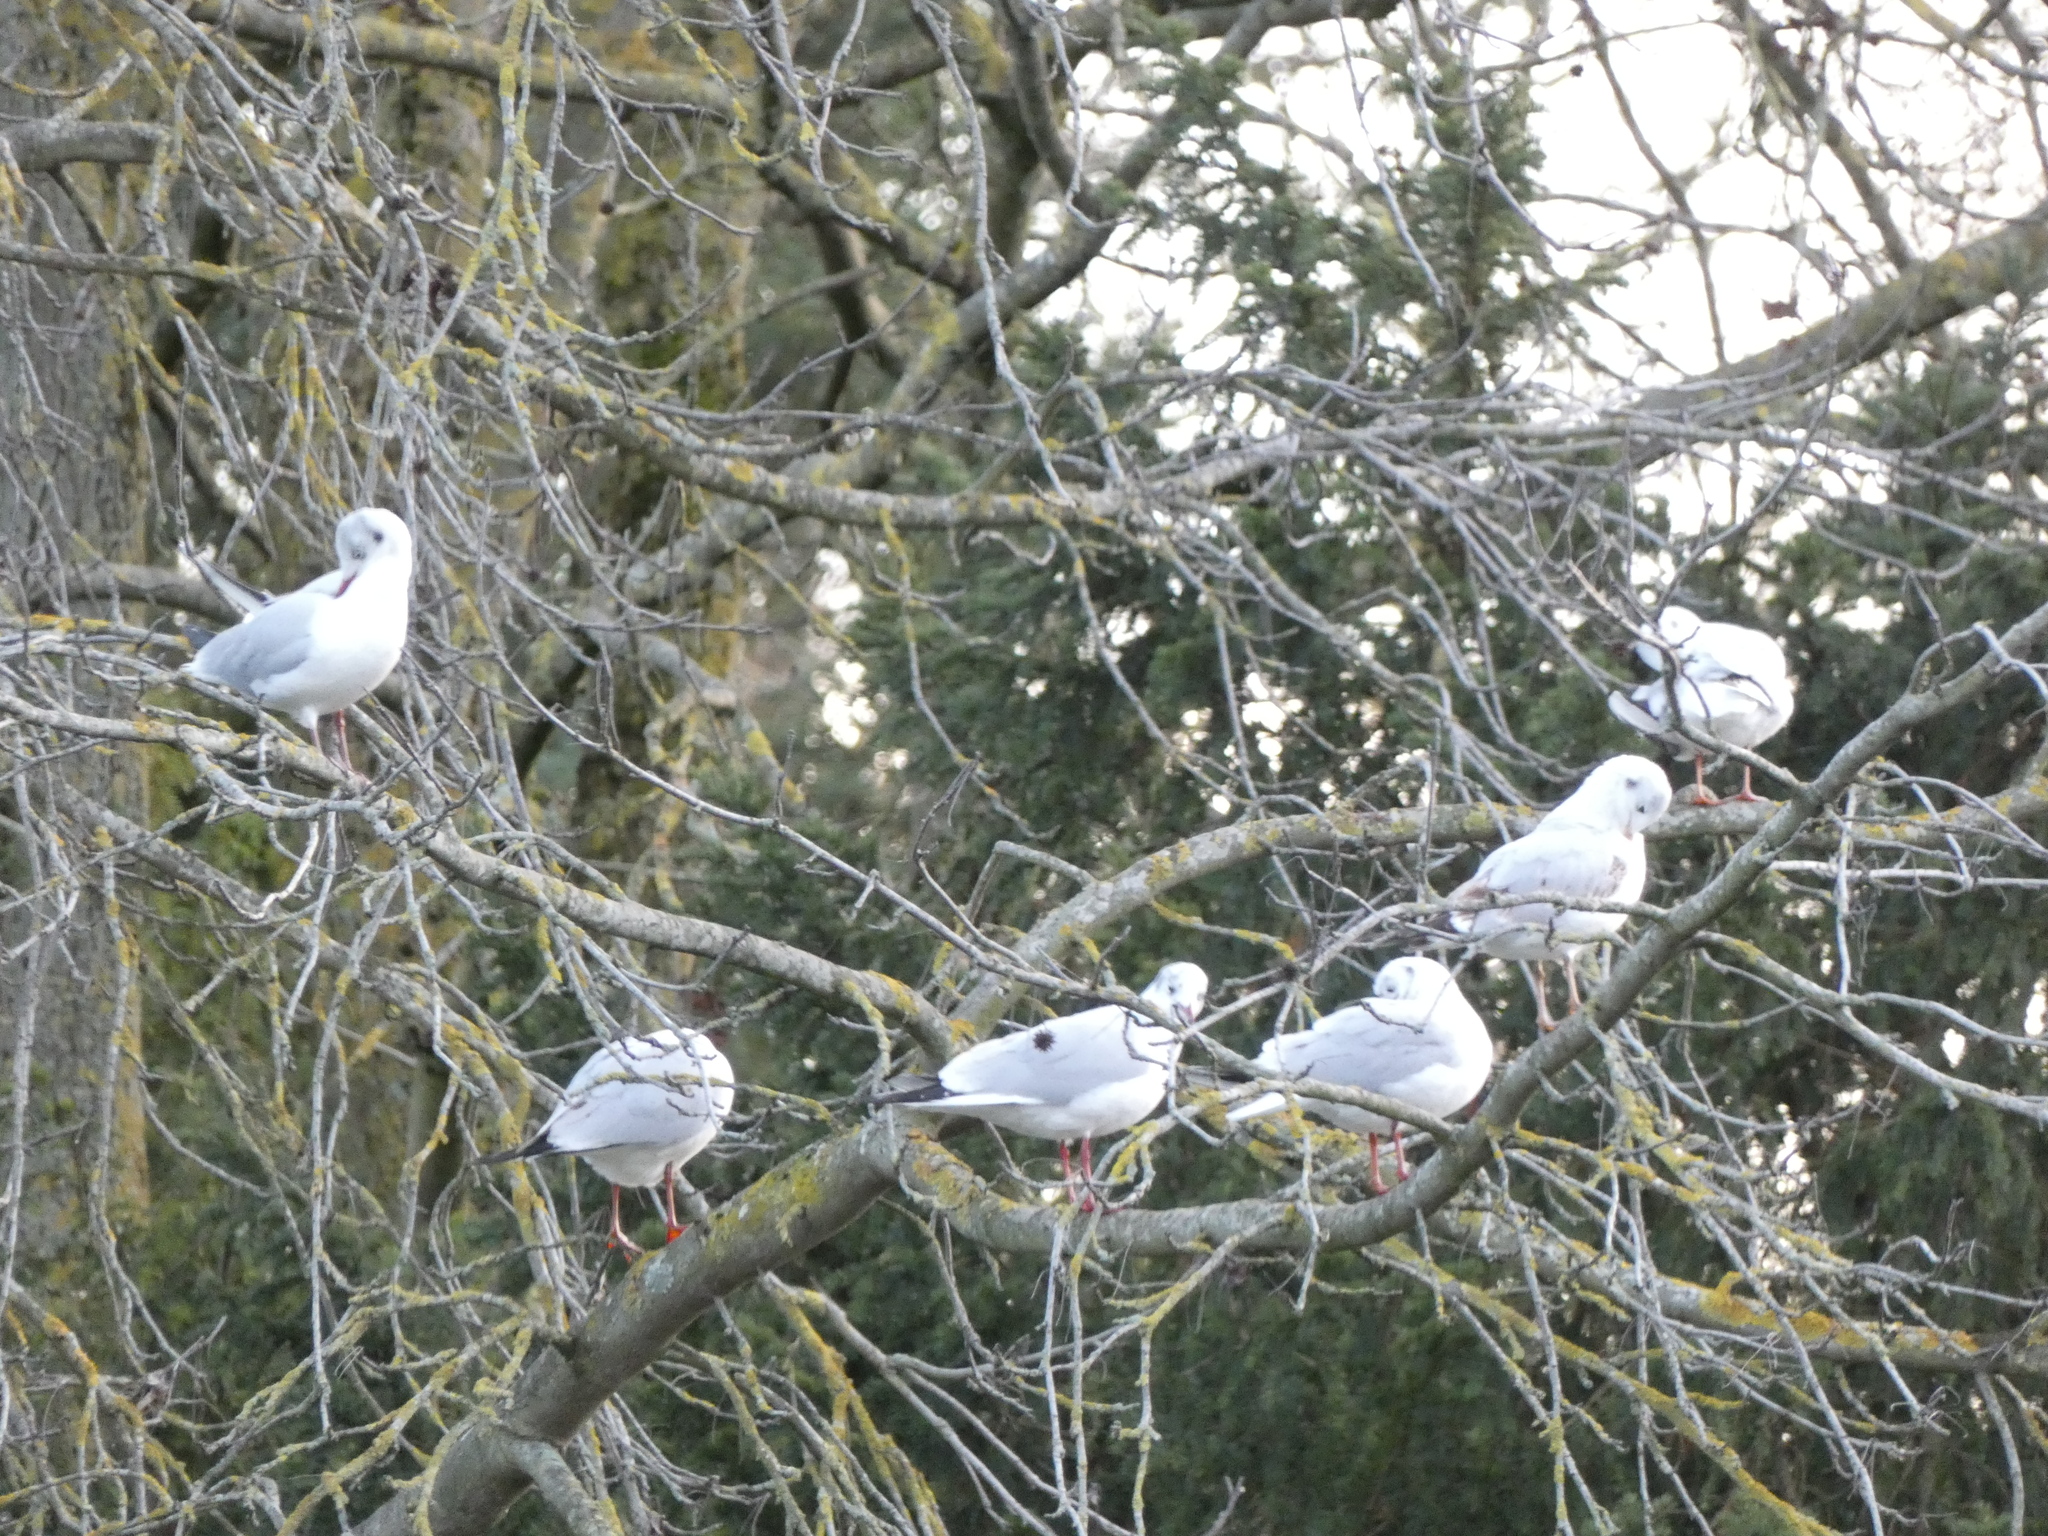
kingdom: Animalia
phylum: Chordata
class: Aves
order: Charadriiformes
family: Laridae
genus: Chroicocephalus
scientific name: Chroicocephalus ridibundus
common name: Black-headed gull
